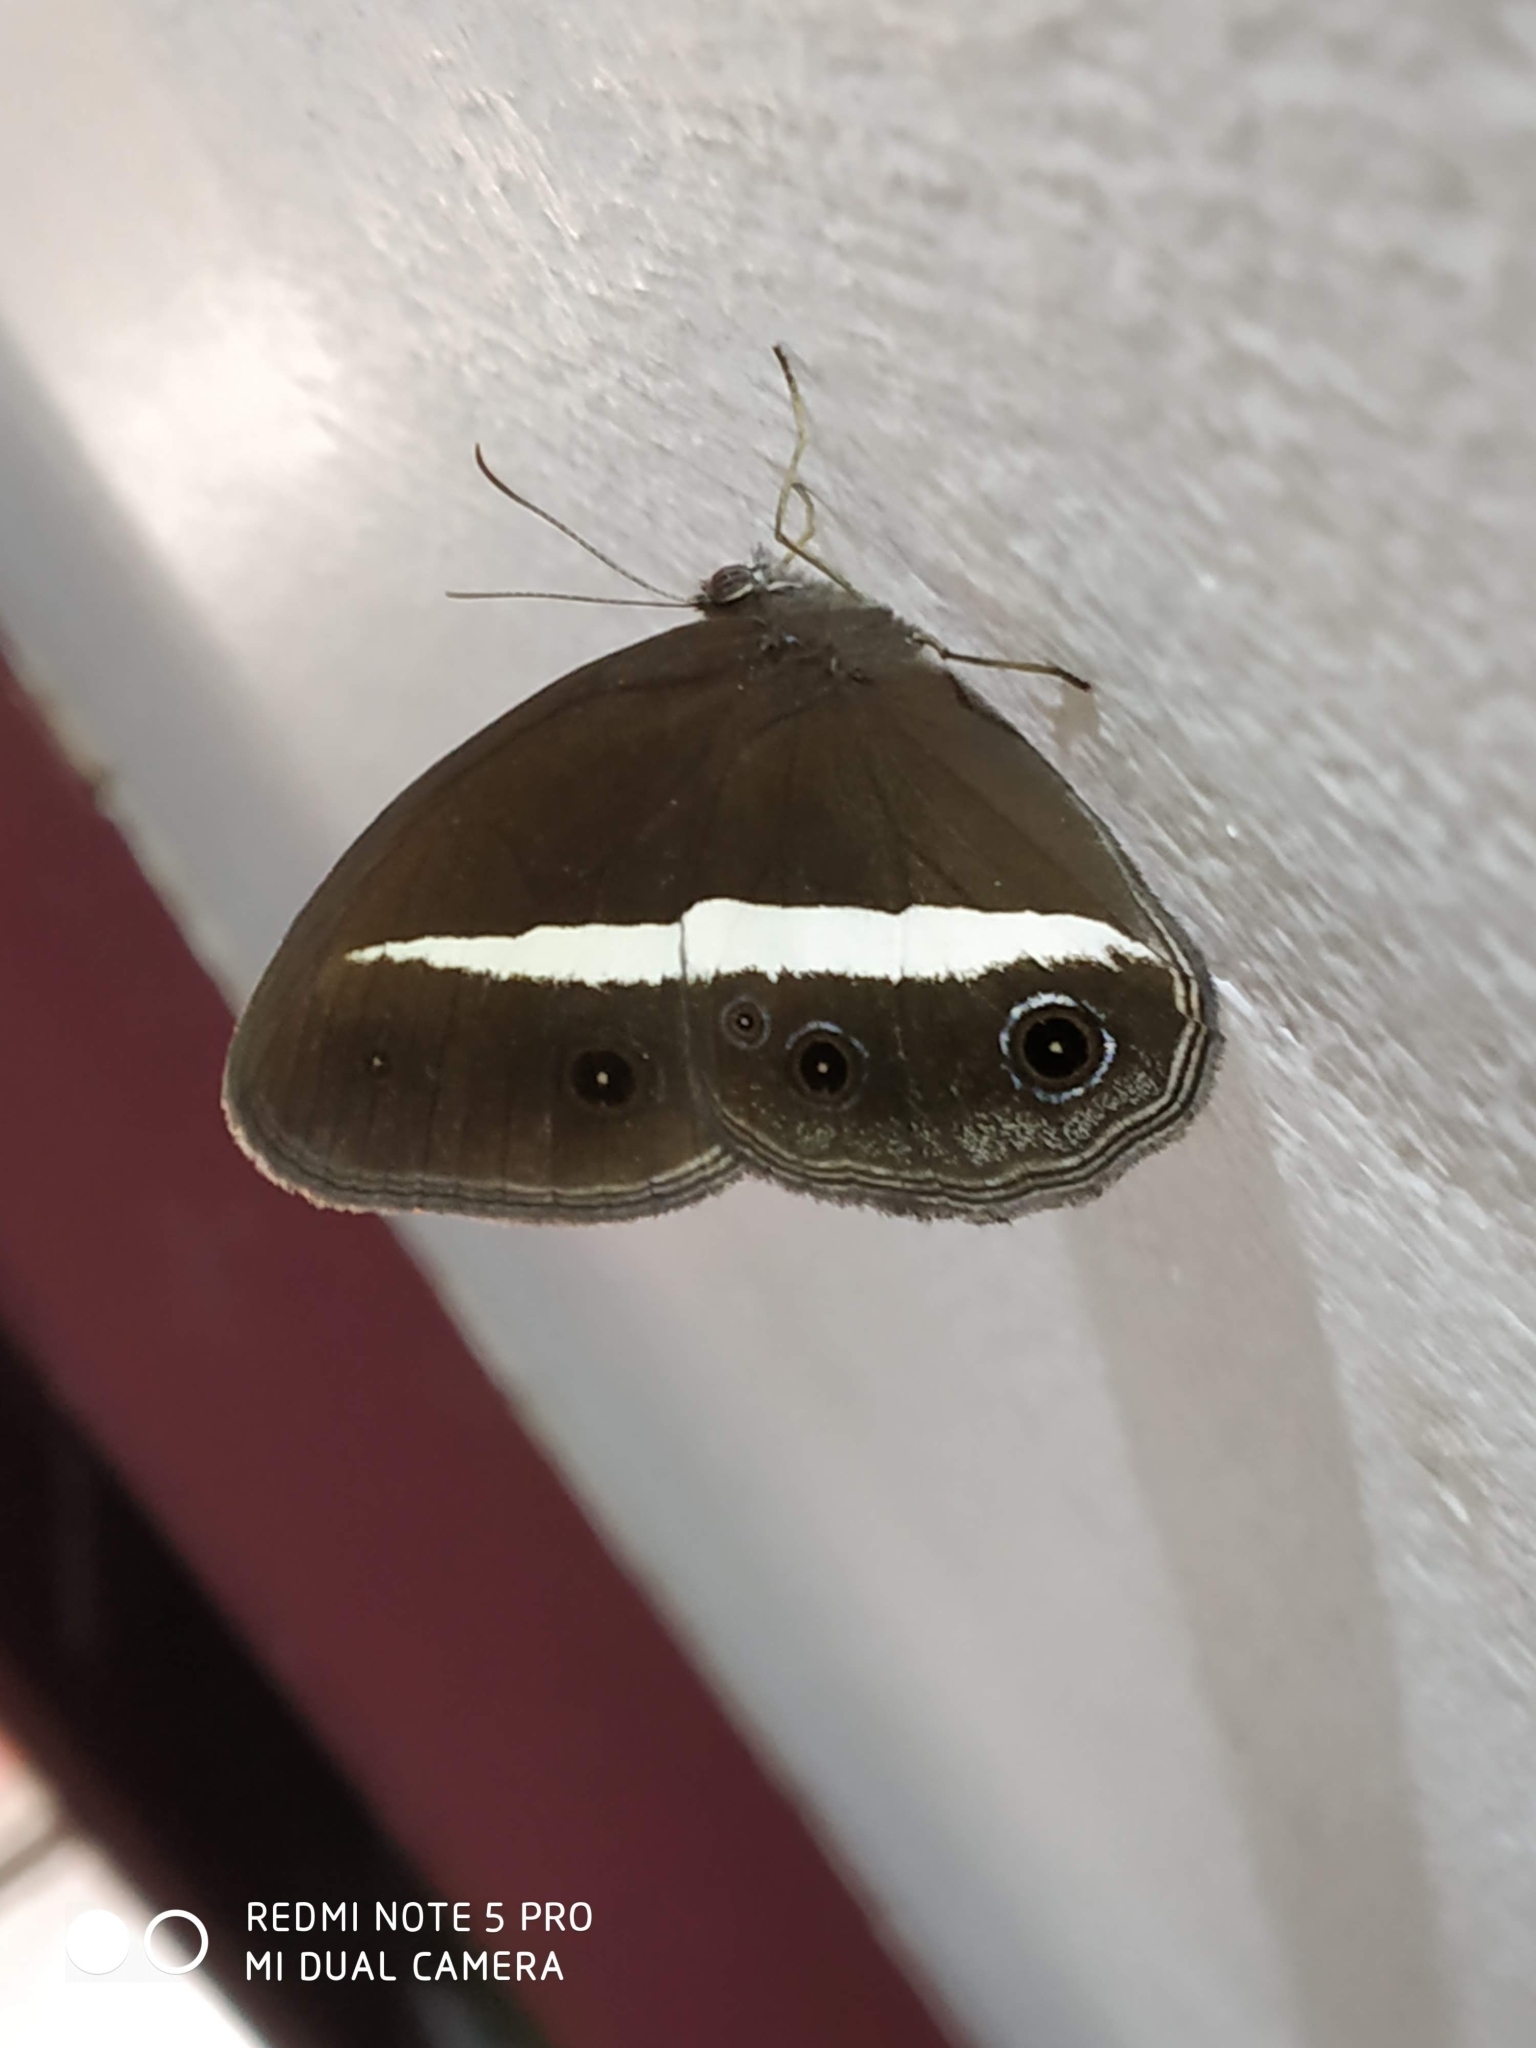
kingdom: Animalia
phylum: Arthropoda
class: Insecta
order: Lepidoptera
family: Nymphalidae
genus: Orsotriaena
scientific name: Orsotriaena medus
